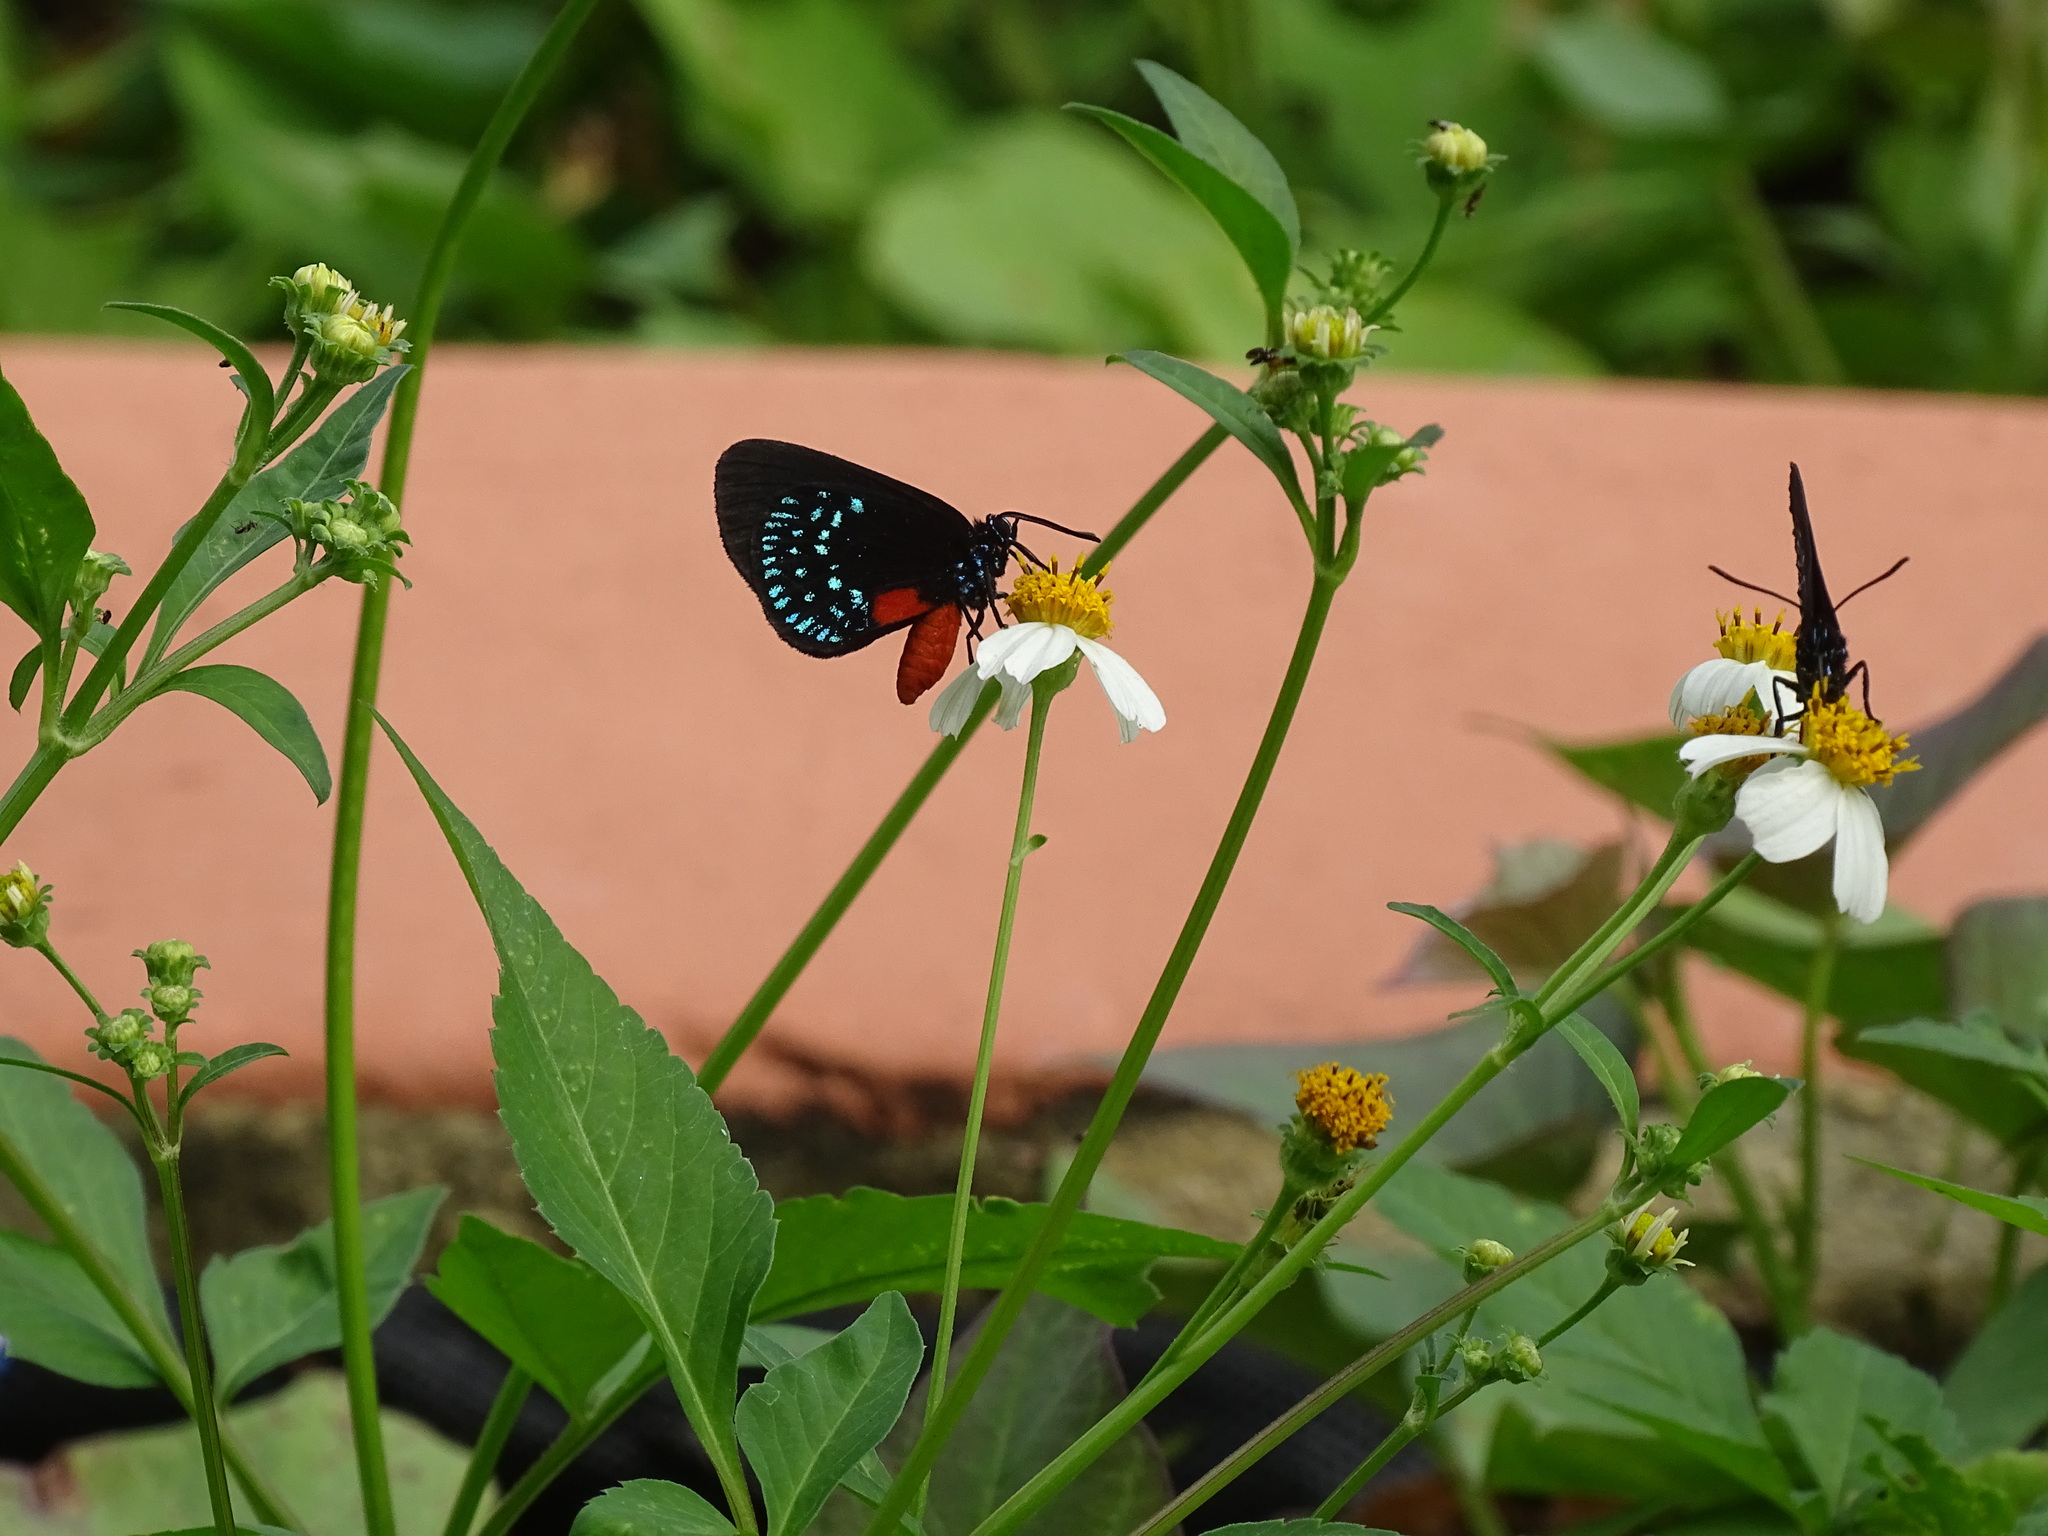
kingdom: Animalia
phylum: Arthropoda
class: Insecta
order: Lepidoptera
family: Lycaenidae
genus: Eumaeus
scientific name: Eumaeus atala
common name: Atala
